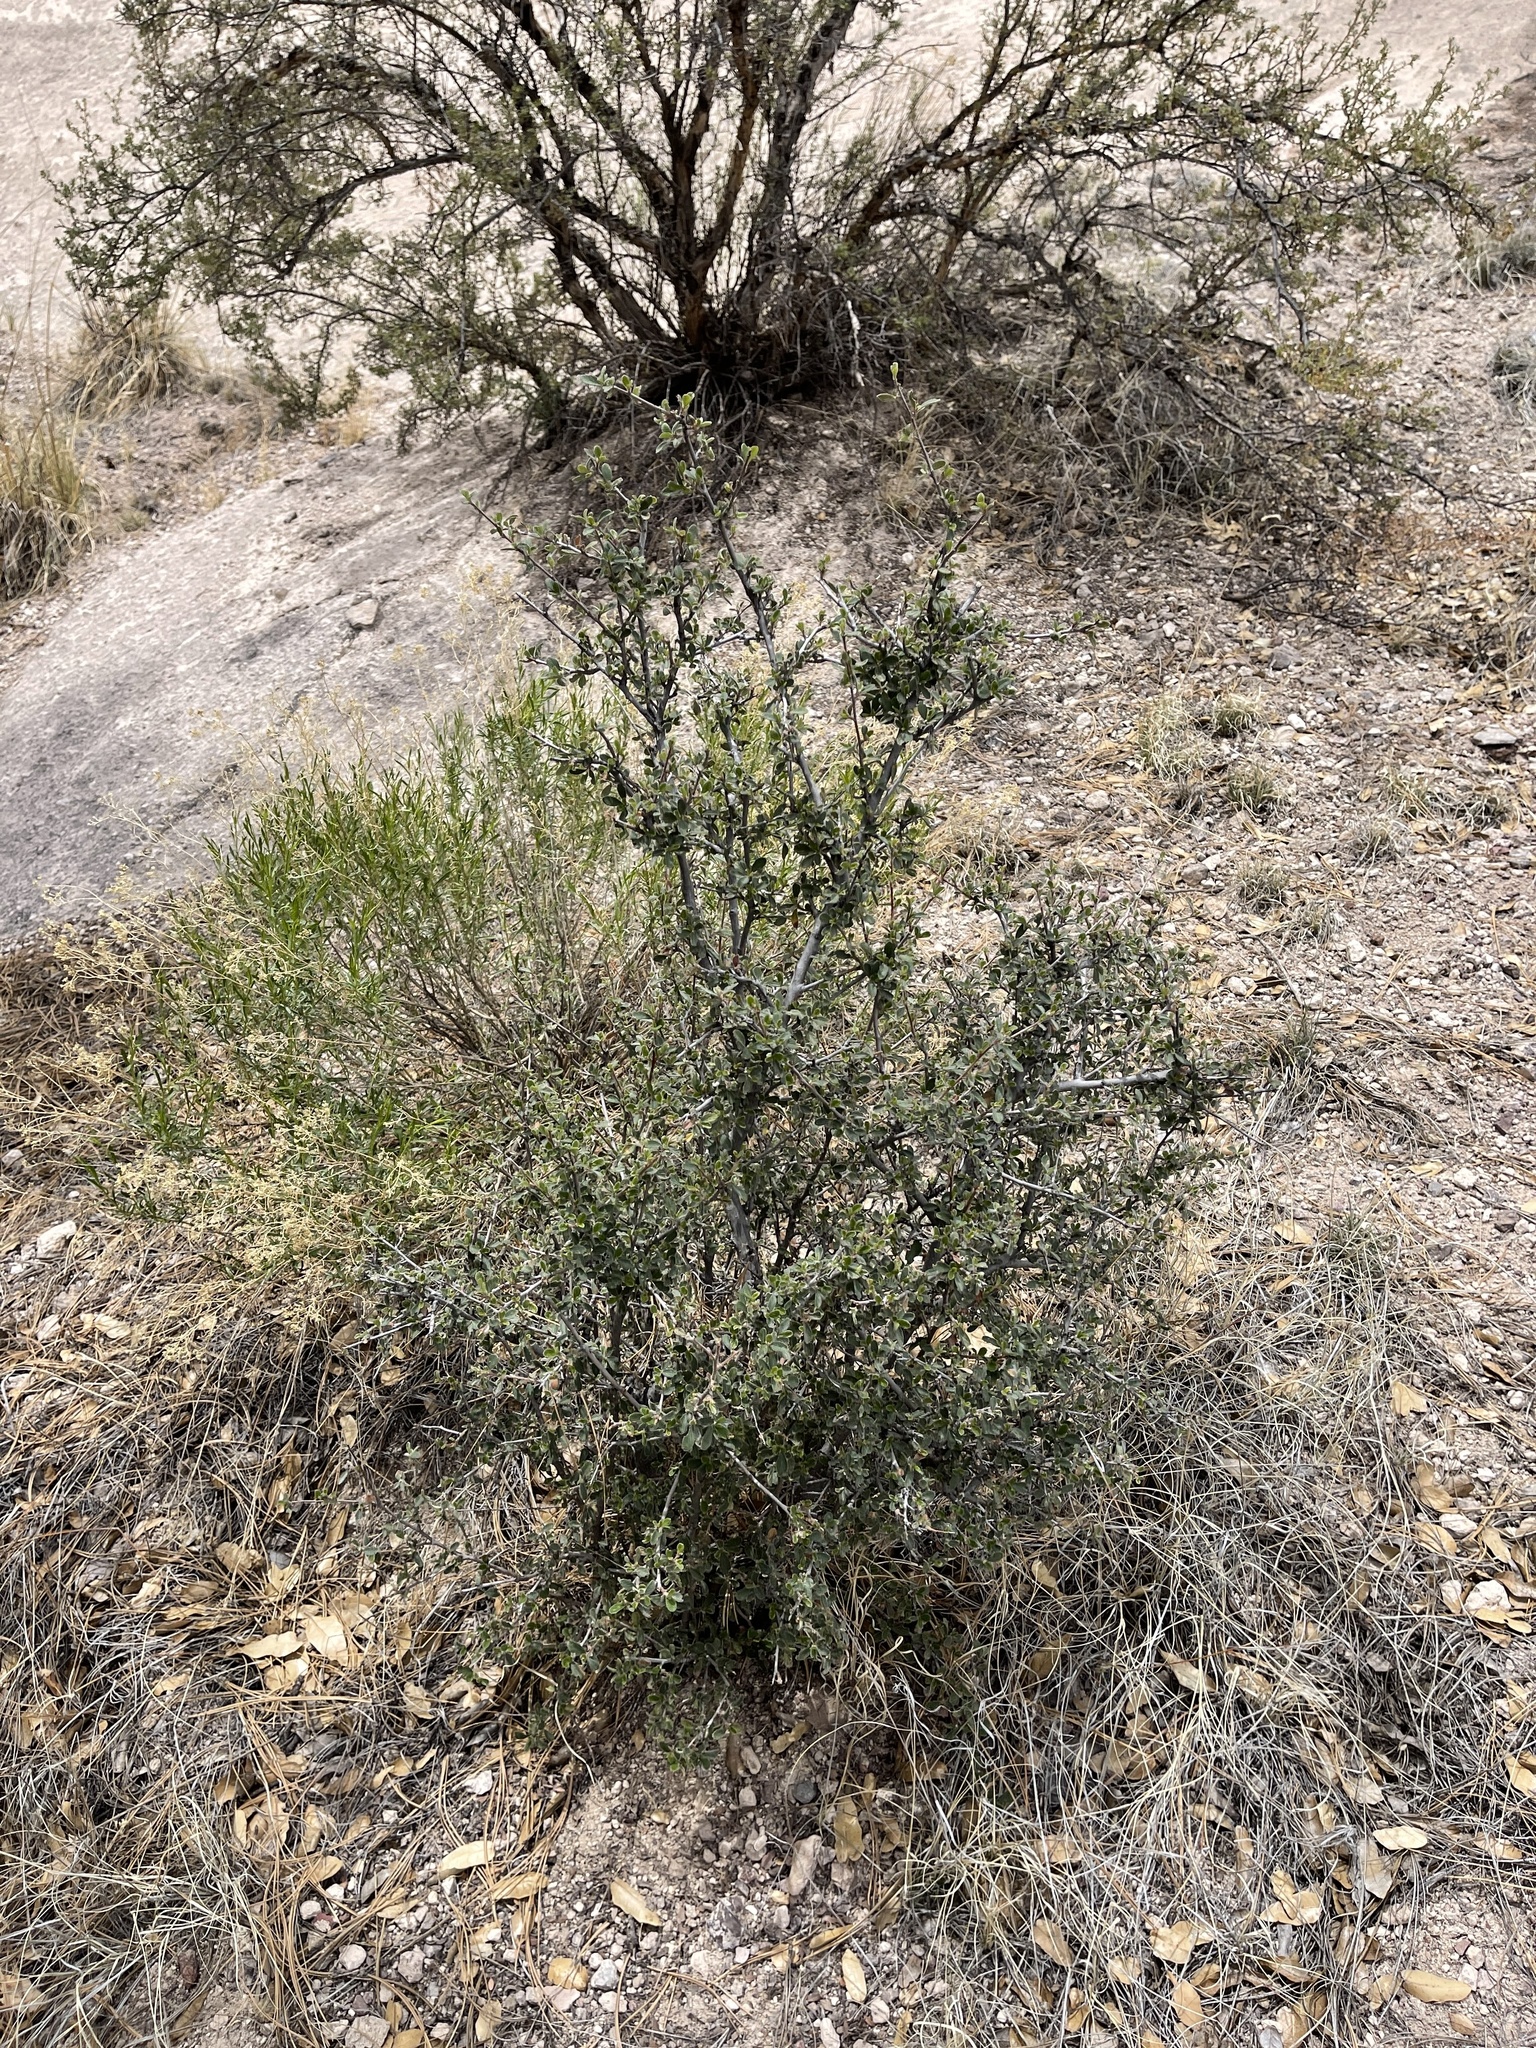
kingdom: Plantae
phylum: Tracheophyta
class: Magnoliopsida
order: Rosales
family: Rosaceae
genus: Cercocarpus
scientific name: Cercocarpus breviflorus
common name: Wright's mountain-mahogany
